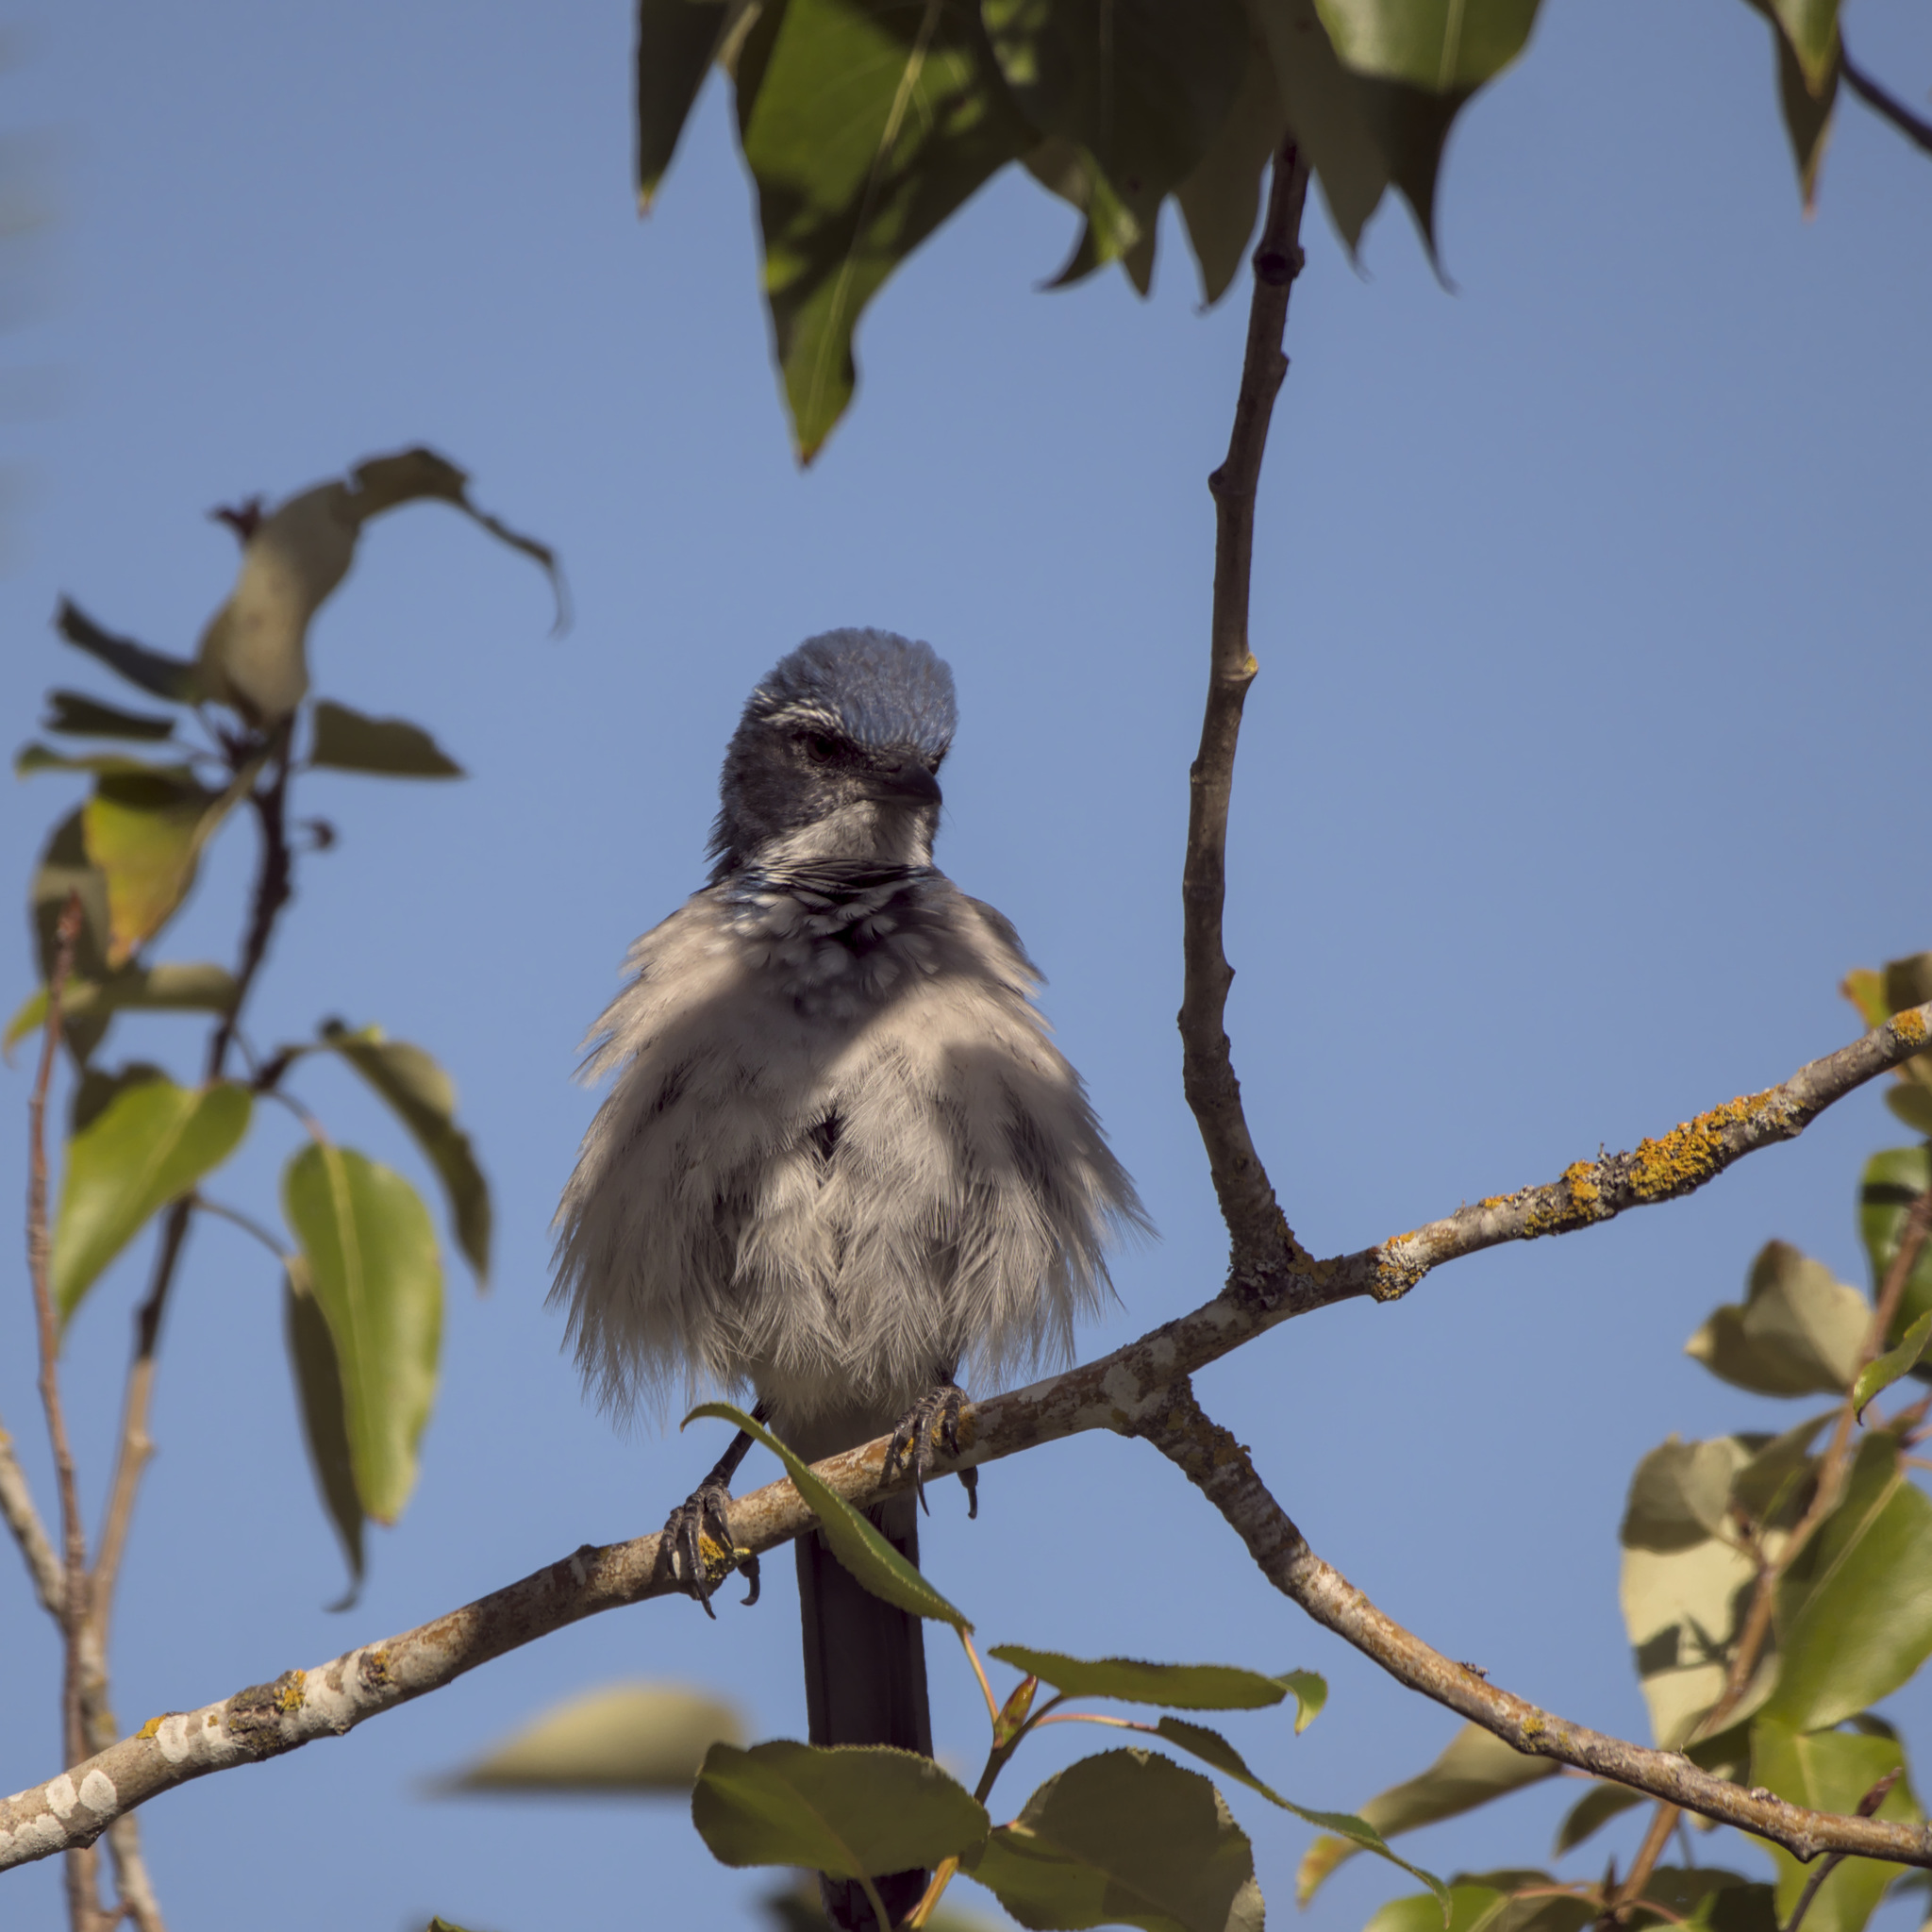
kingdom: Animalia
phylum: Chordata
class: Aves
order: Passeriformes
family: Corvidae
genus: Aphelocoma
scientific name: Aphelocoma californica
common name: California scrub-jay
